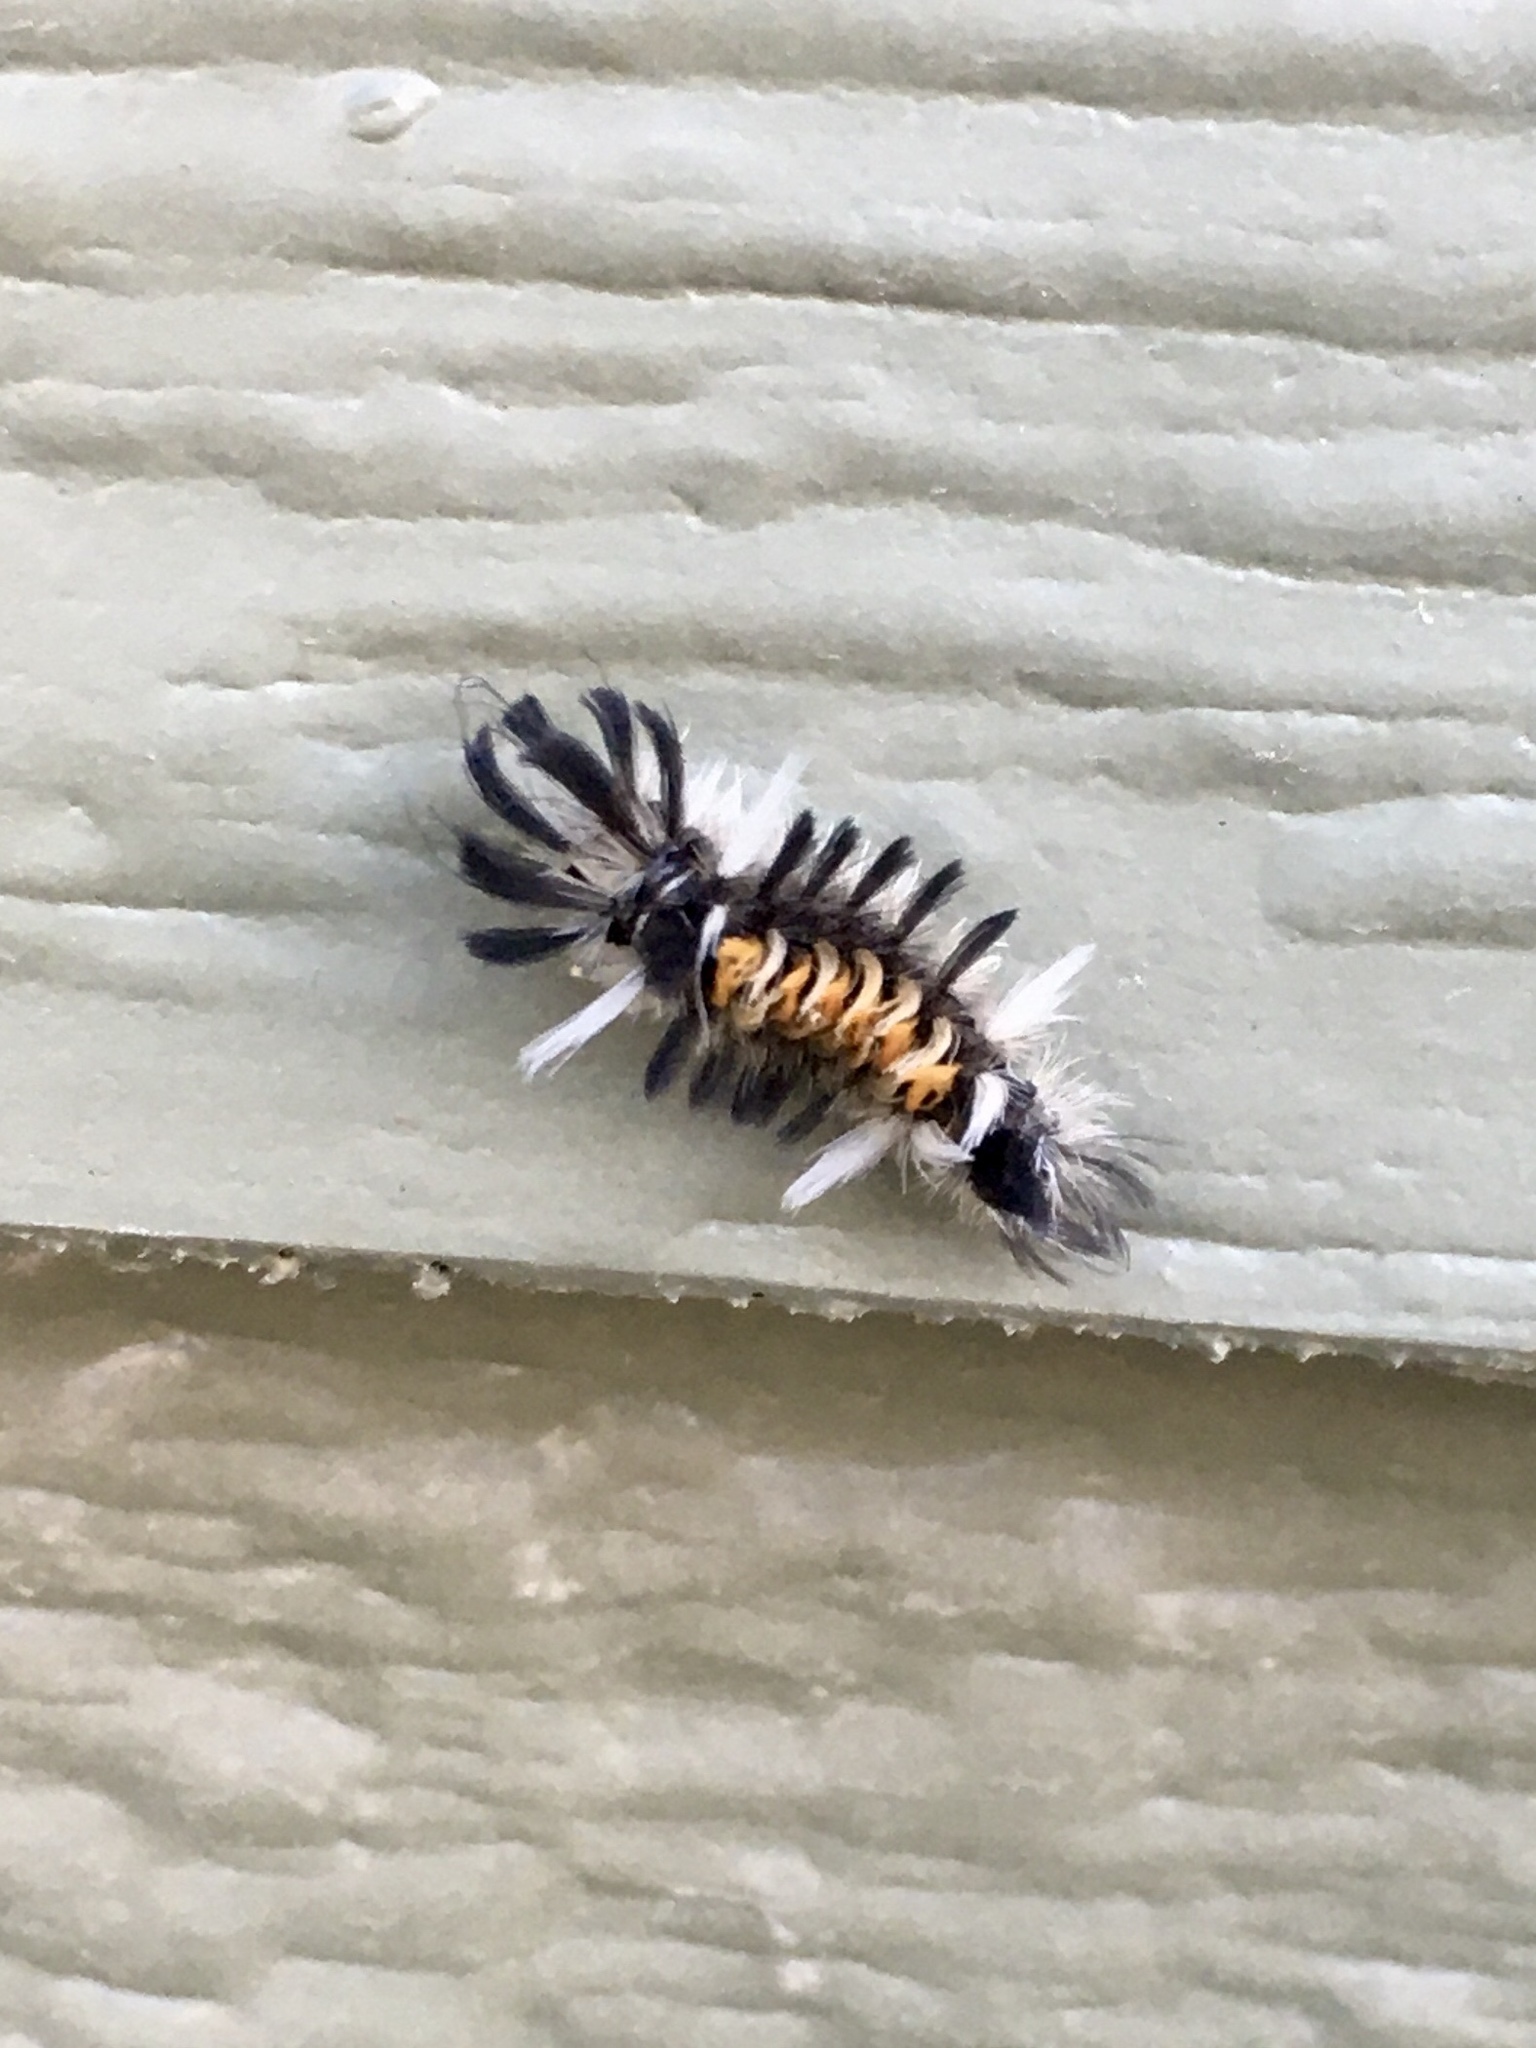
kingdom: Animalia
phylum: Arthropoda
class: Insecta
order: Lepidoptera
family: Erebidae
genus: Euchaetes
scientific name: Euchaetes egle
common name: Milkweed tussock moth
